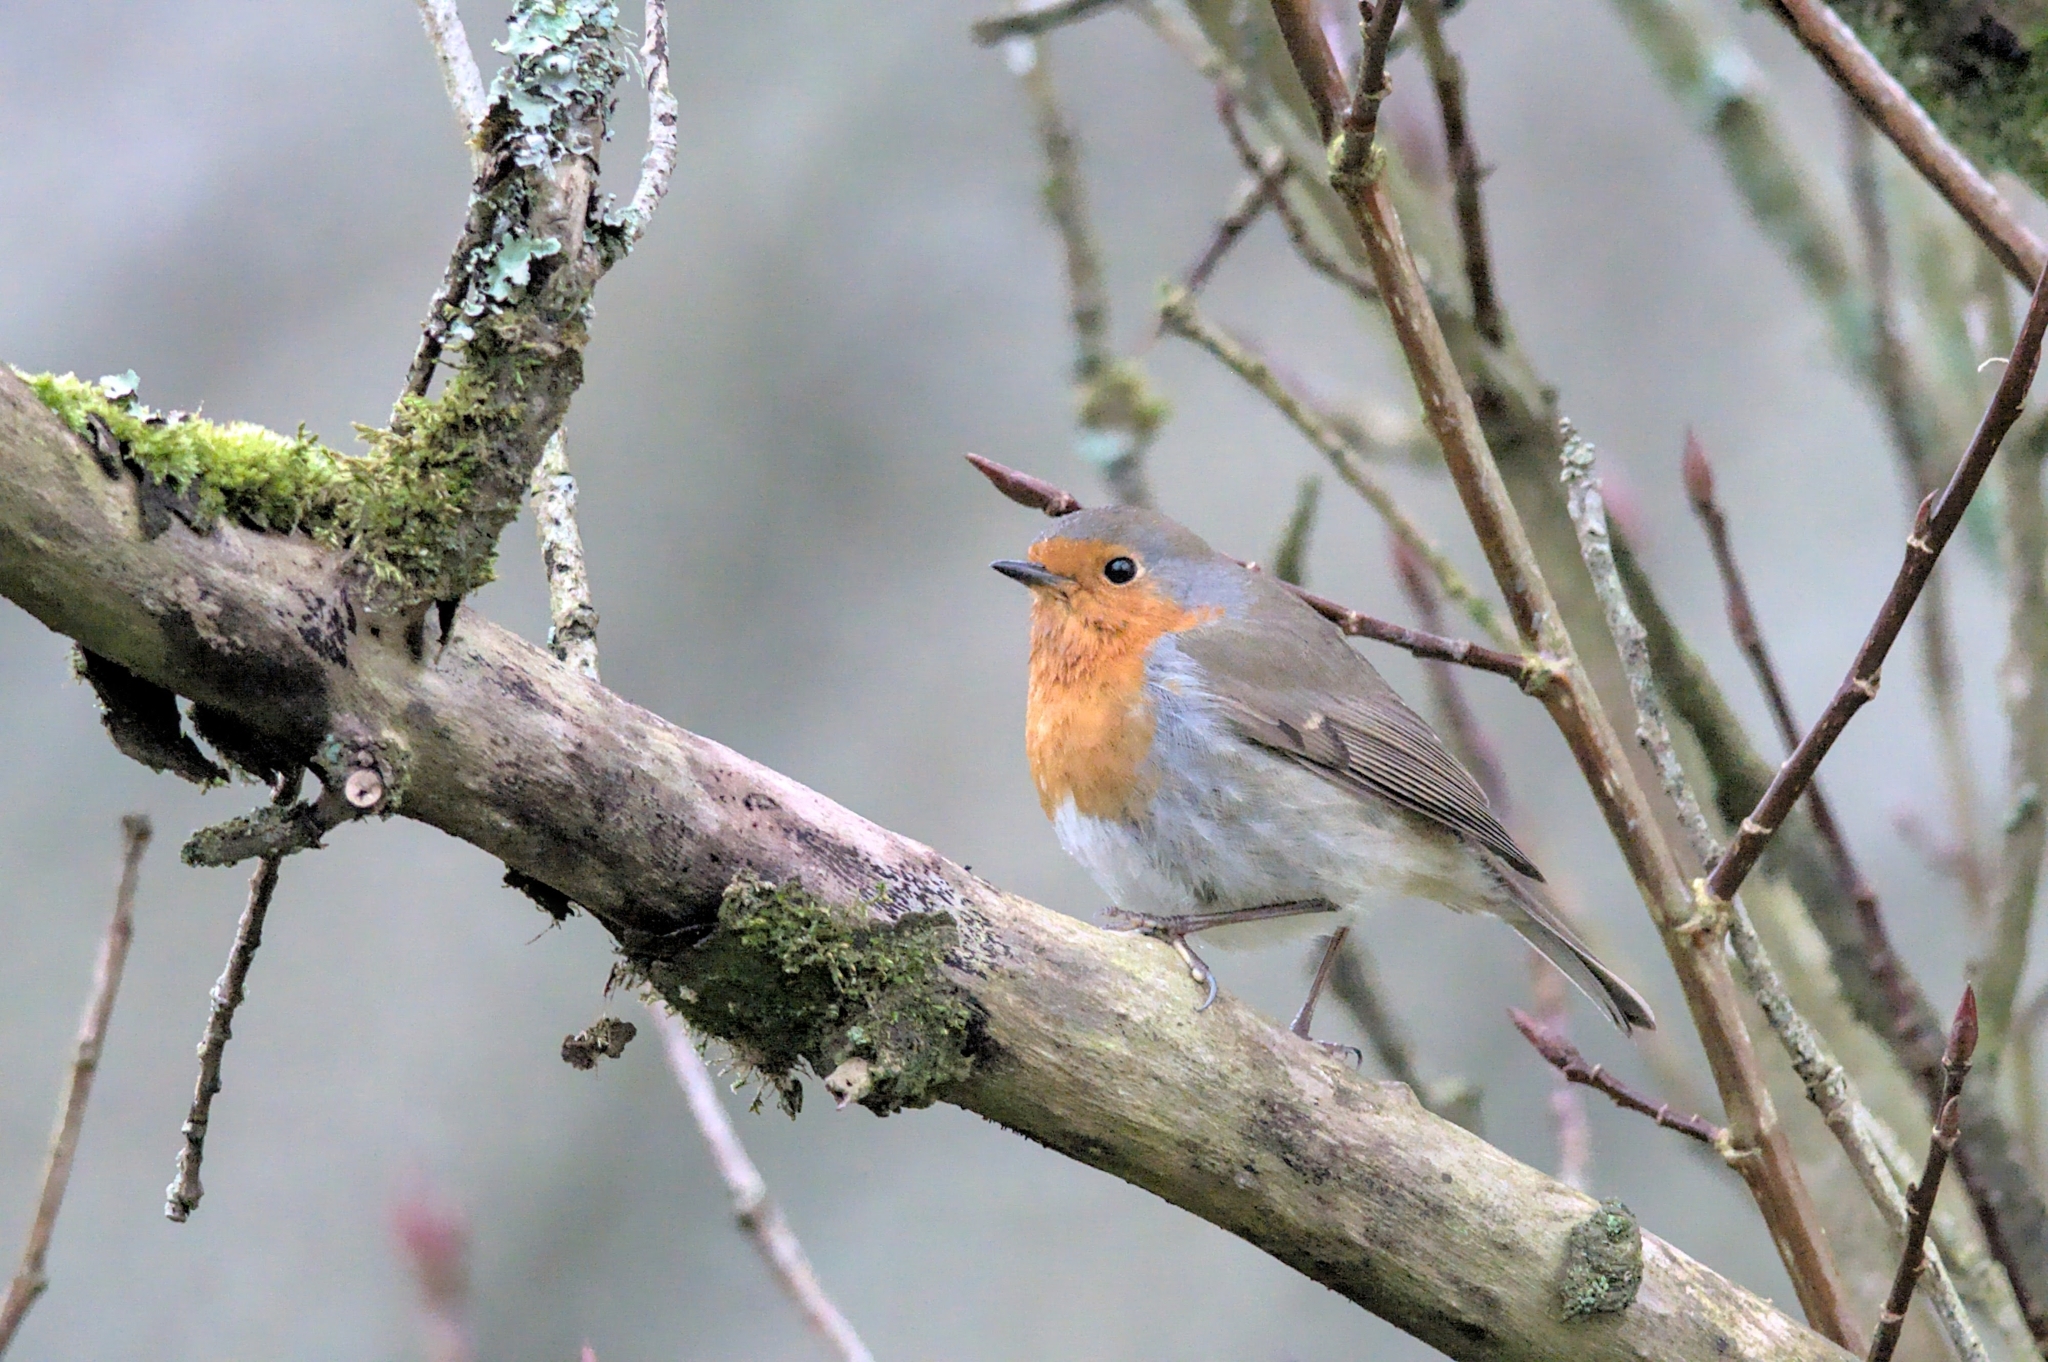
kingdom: Animalia
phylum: Chordata
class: Aves
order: Passeriformes
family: Muscicapidae
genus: Erithacus
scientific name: Erithacus rubecula
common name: European robin
